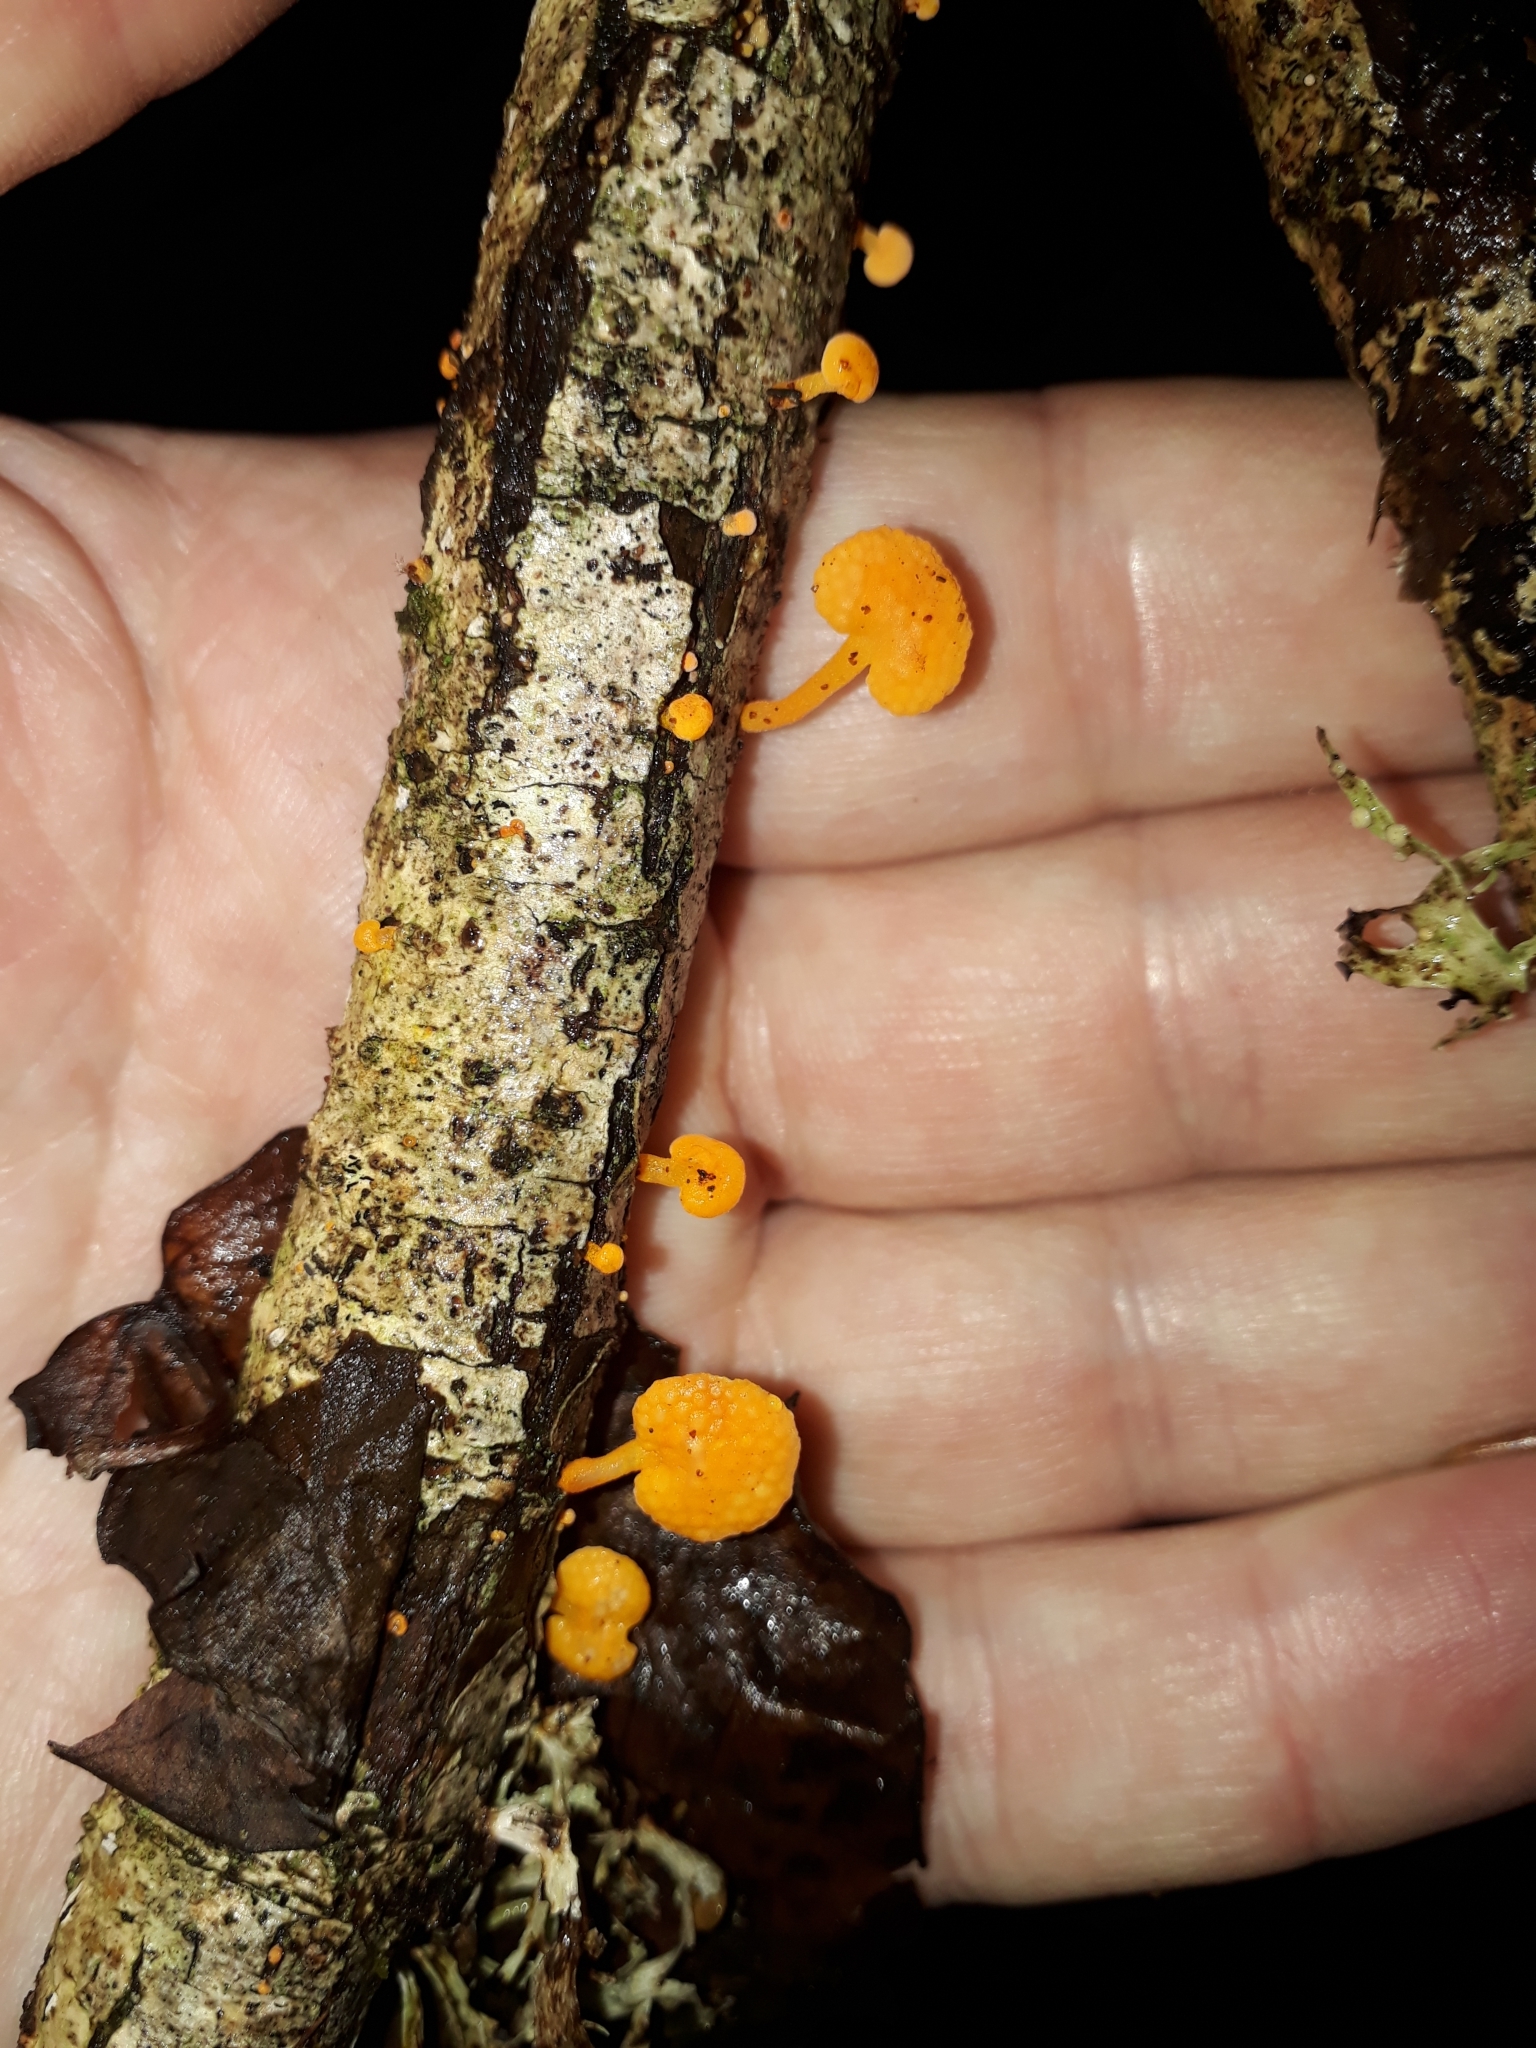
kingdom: Fungi
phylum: Basidiomycota
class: Agaricomycetes
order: Agaricales
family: Mycenaceae
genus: Favolaschia
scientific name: Favolaschia claudopus
